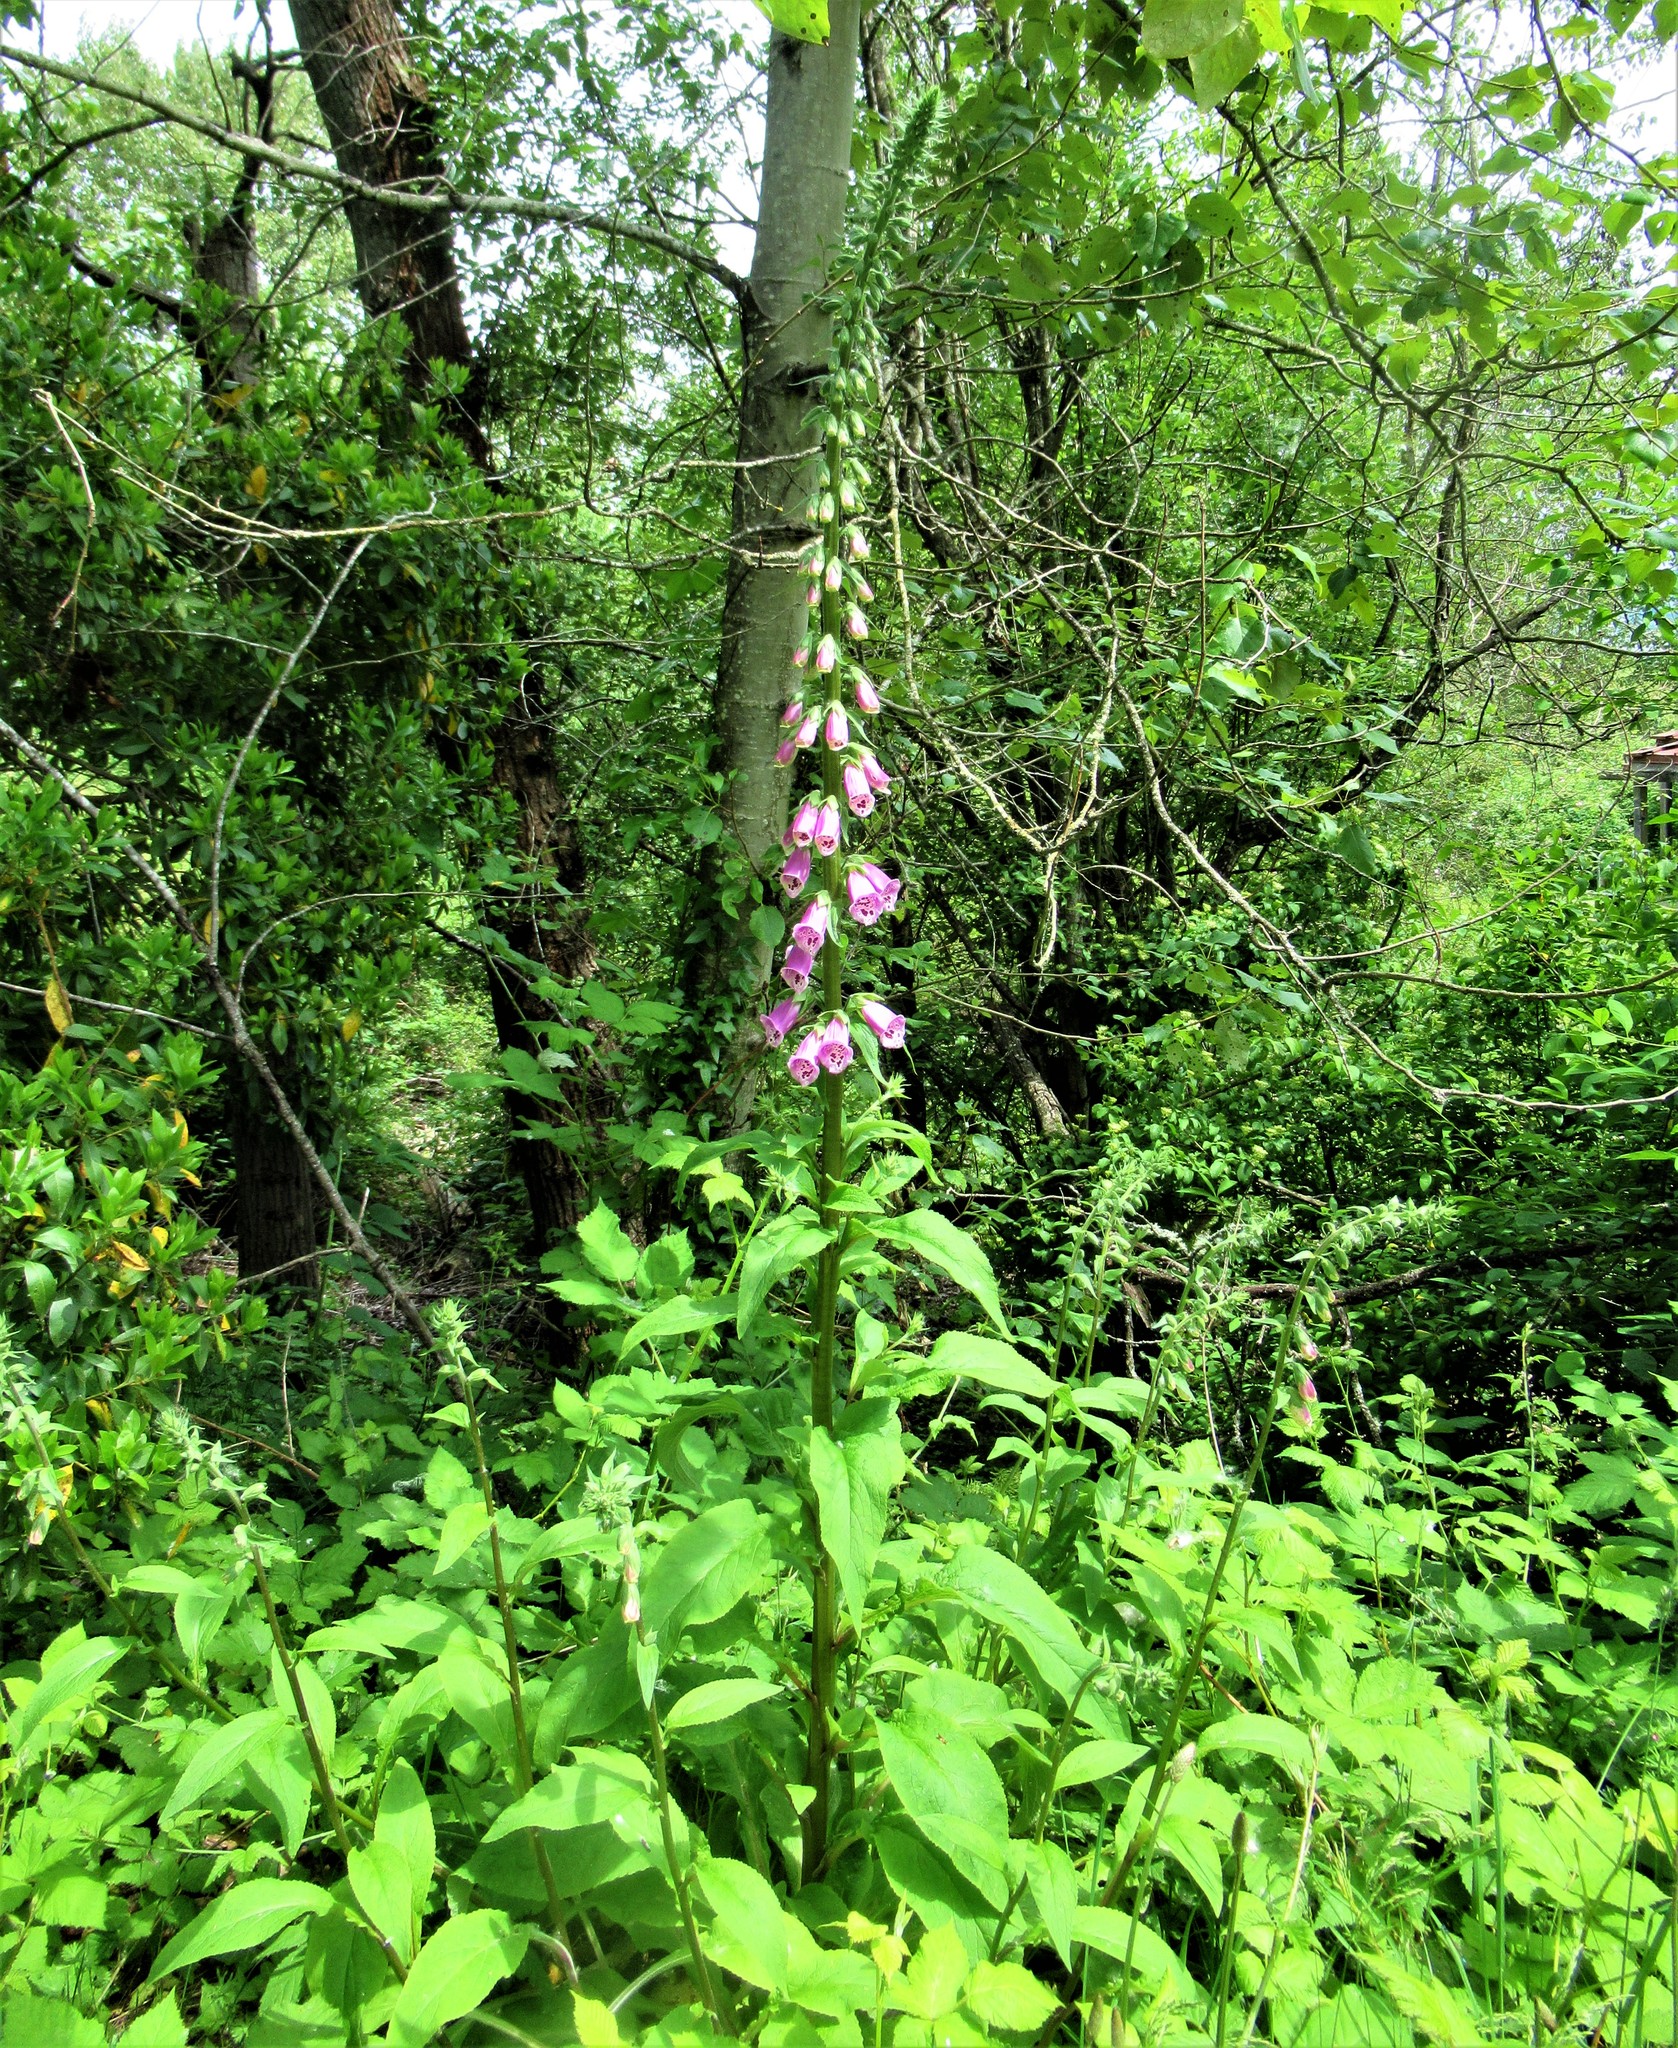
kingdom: Plantae
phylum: Tracheophyta
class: Magnoliopsida
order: Lamiales
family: Plantaginaceae
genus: Digitalis
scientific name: Digitalis purpurea
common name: Foxglove
